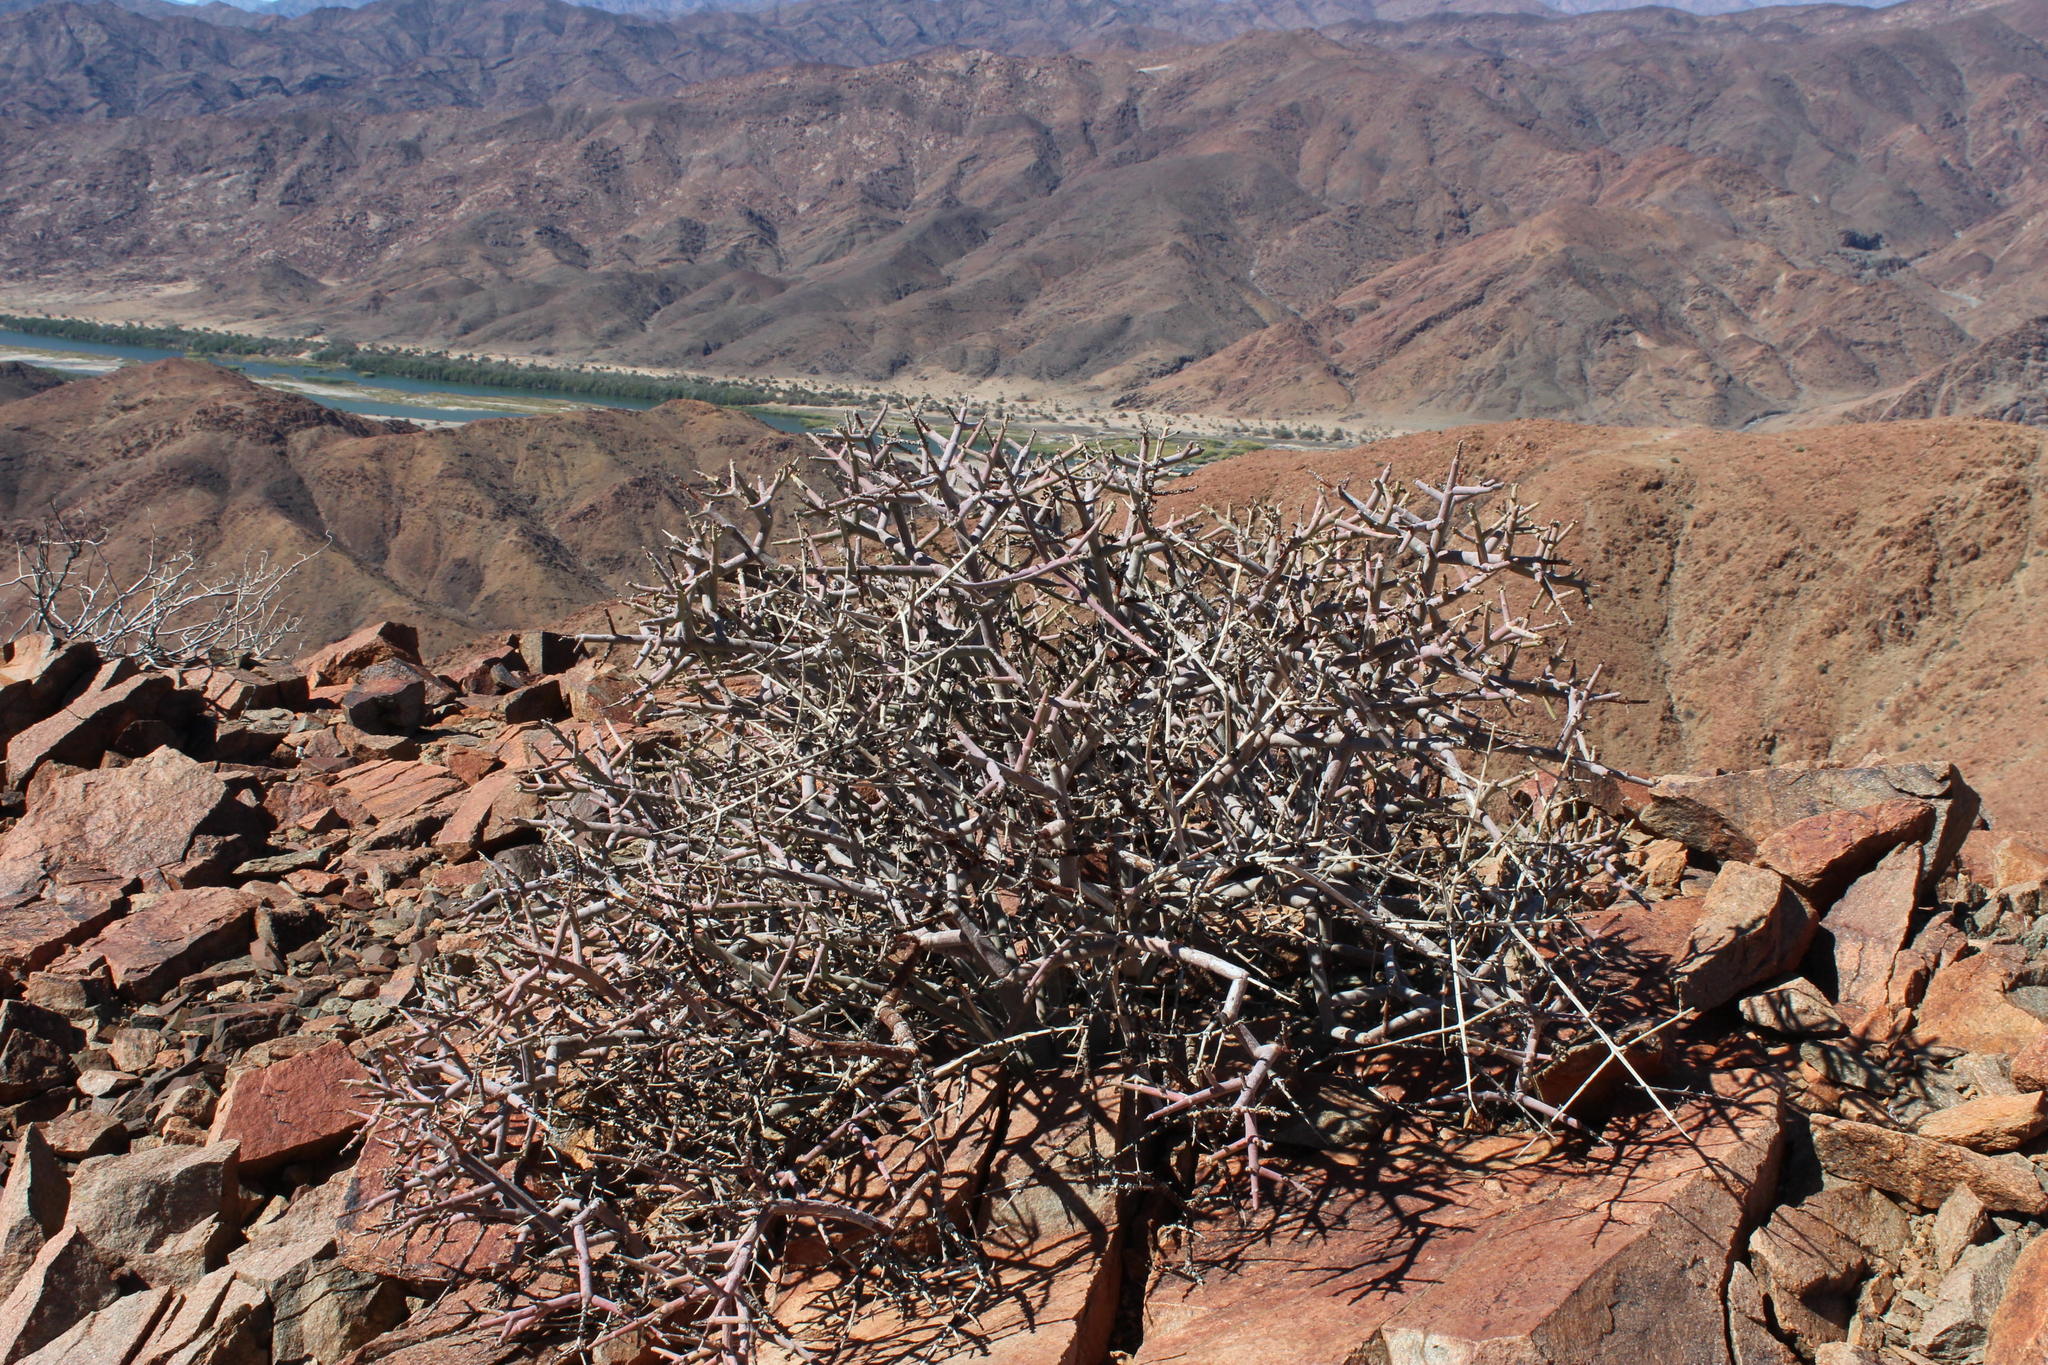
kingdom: Plantae
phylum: Tracheophyta
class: Magnoliopsida
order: Malpighiales
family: Euphorbiaceae
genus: Euphorbia
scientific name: Euphorbia rhombifolia
